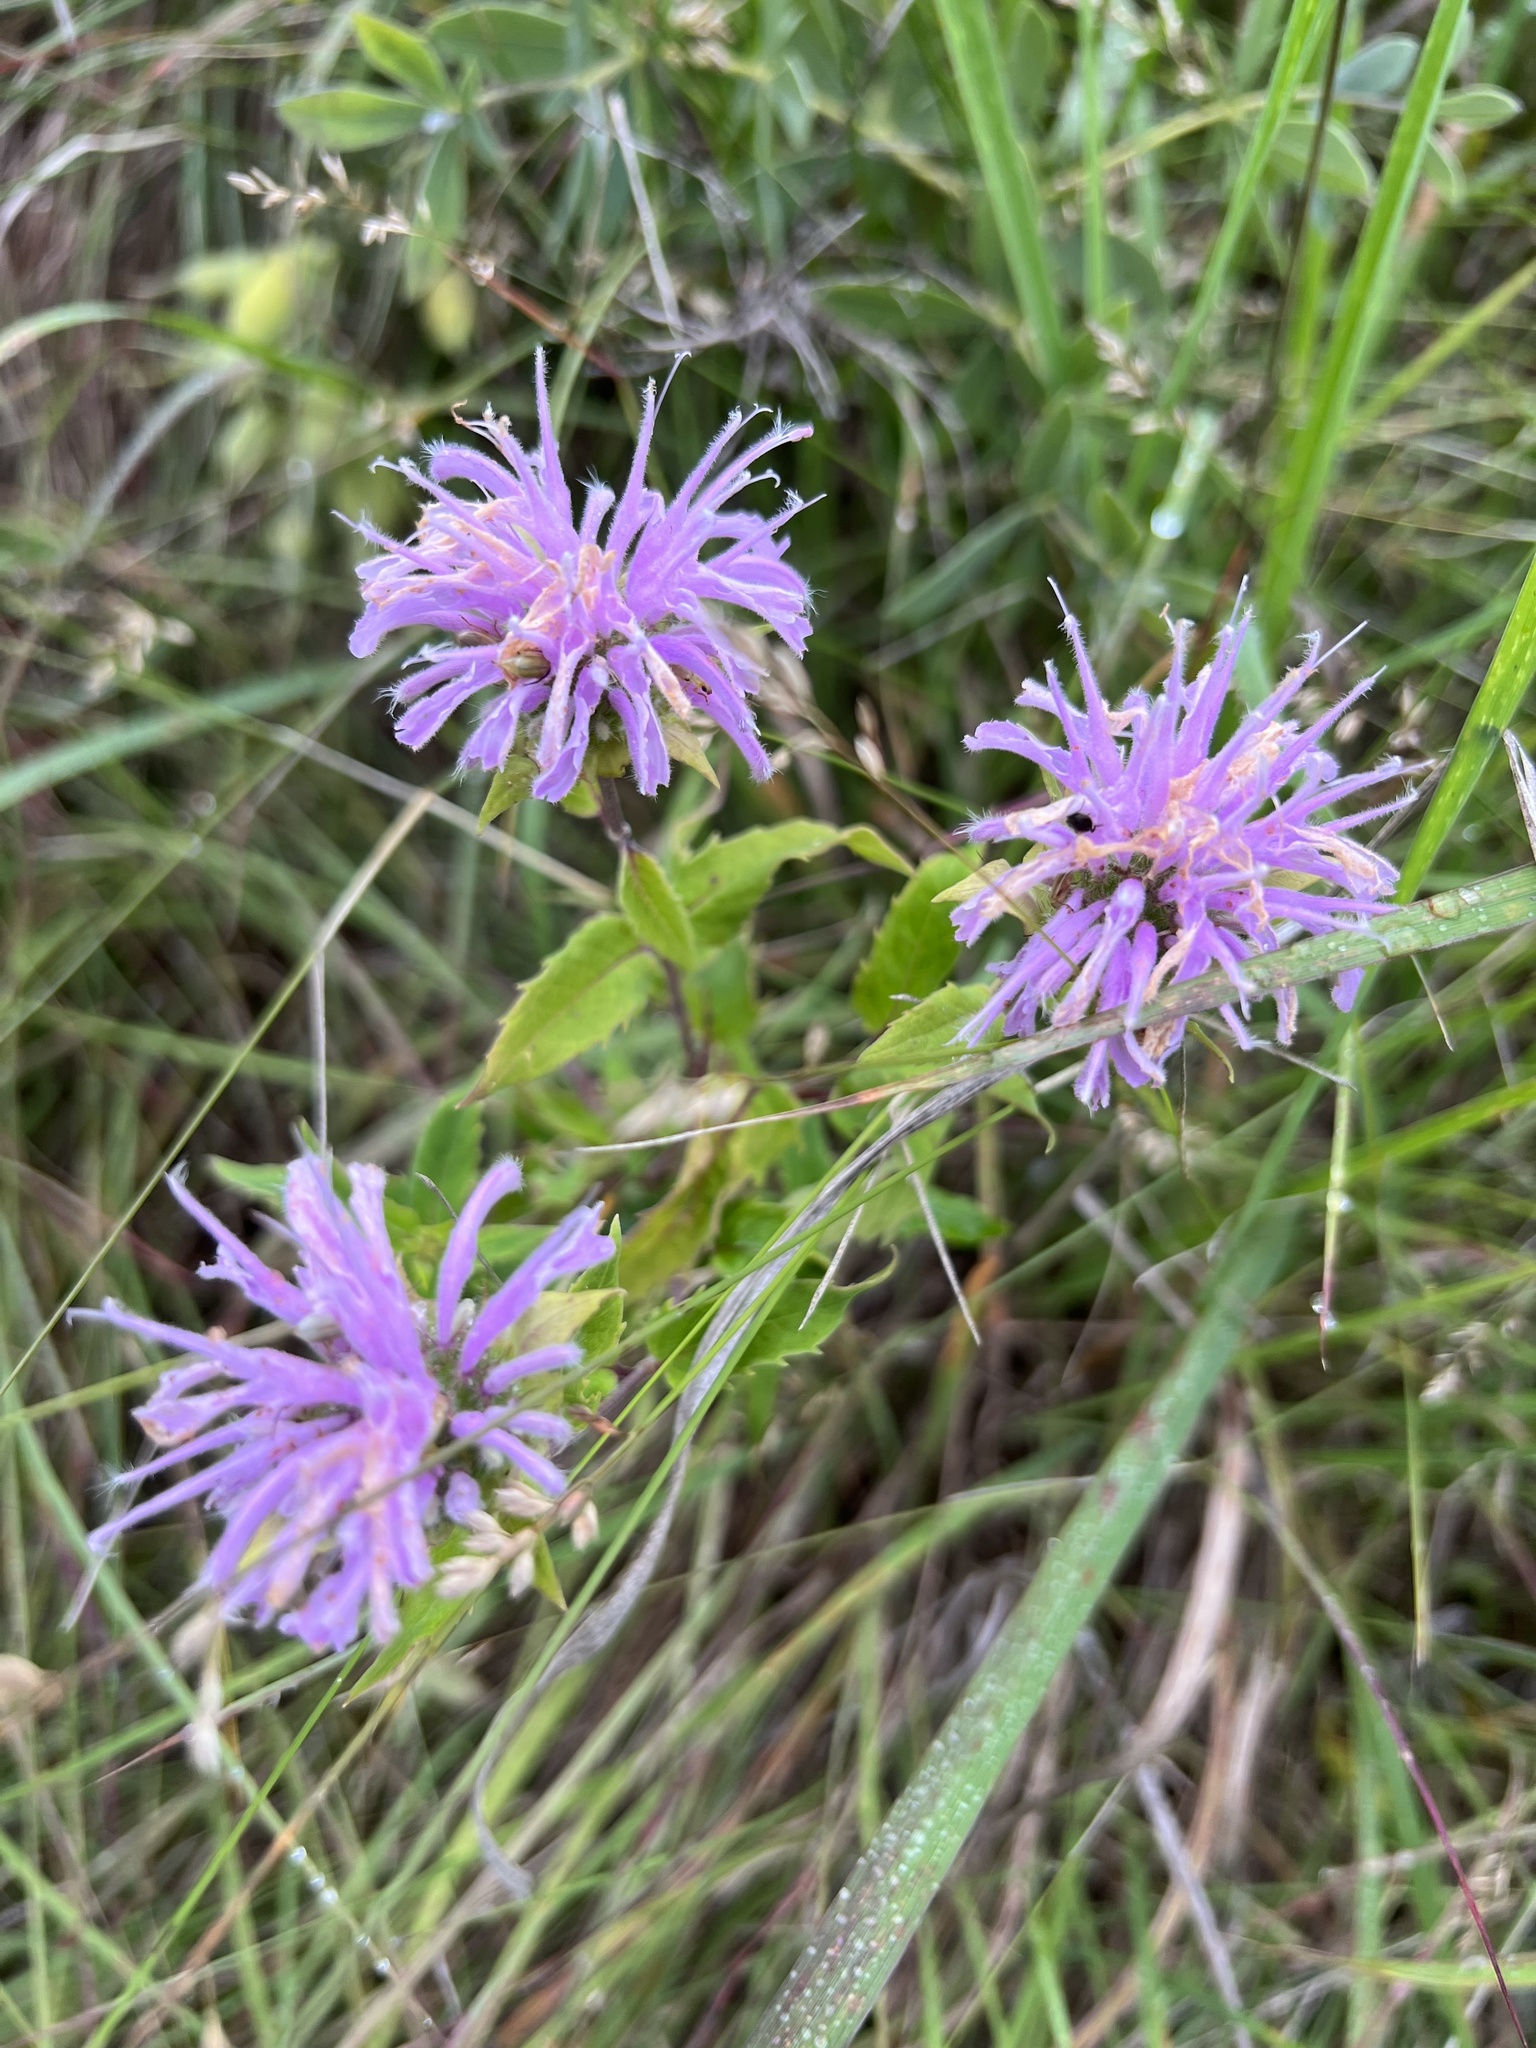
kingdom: Plantae
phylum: Tracheophyta
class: Magnoliopsida
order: Lamiales
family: Lamiaceae
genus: Monarda
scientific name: Monarda fistulosa
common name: Purple beebalm
